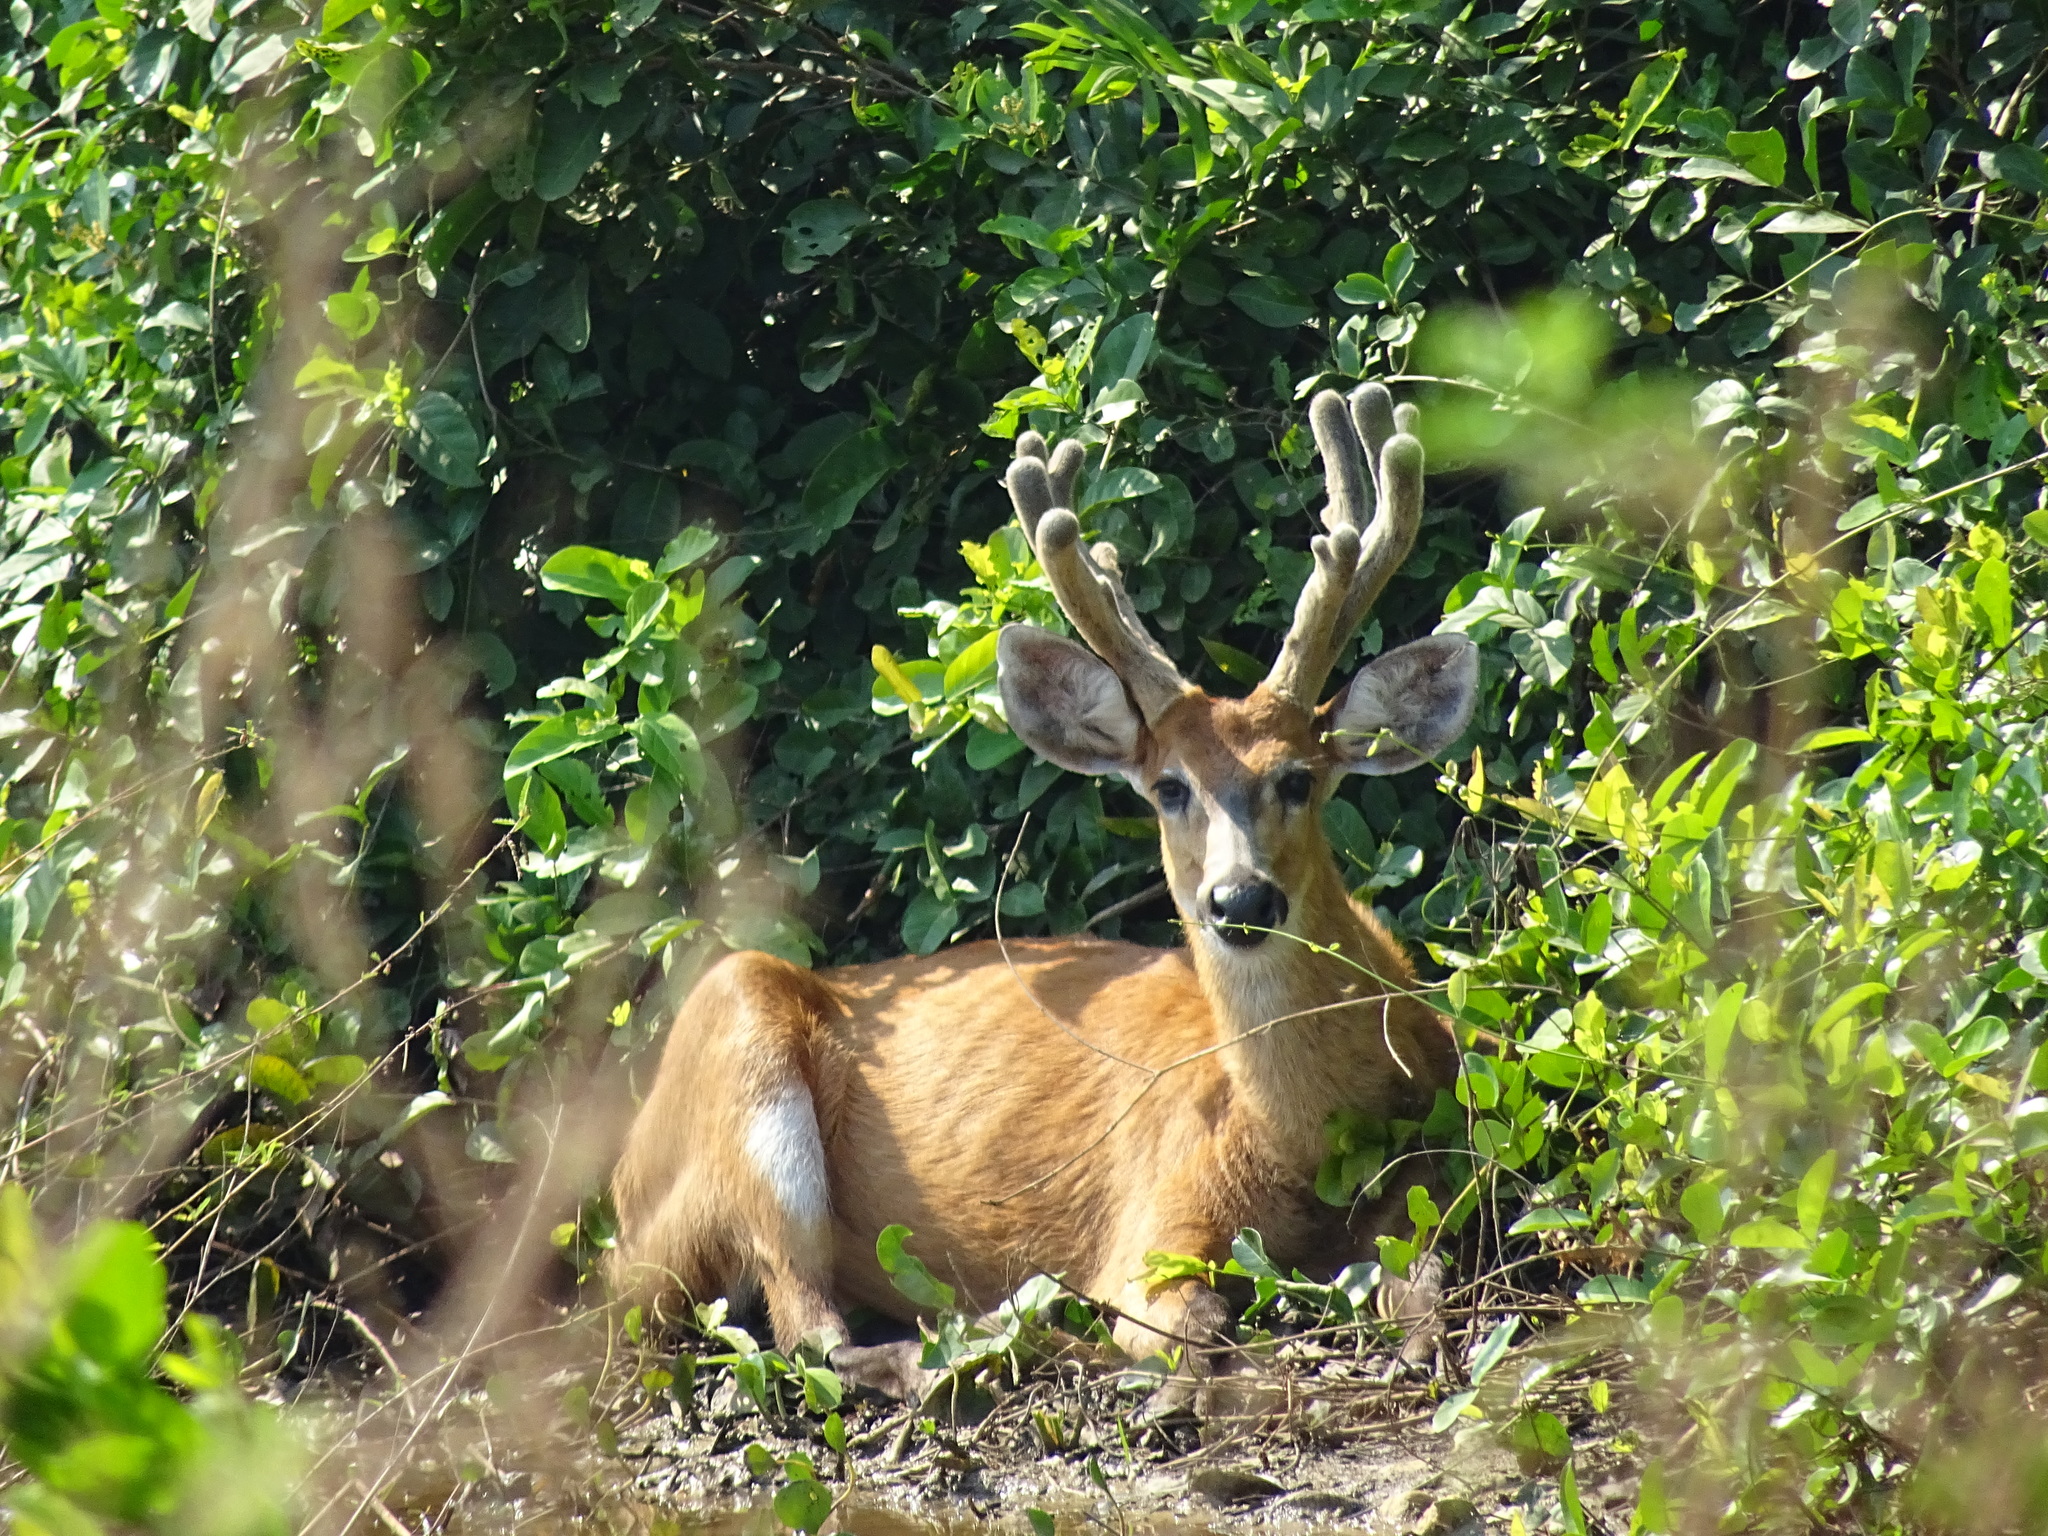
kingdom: Animalia
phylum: Chordata
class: Mammalia
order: Artiodactyla
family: Cervidae
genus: Blastocerus
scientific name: Blastocerus dichotomus
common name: Marsh deer
